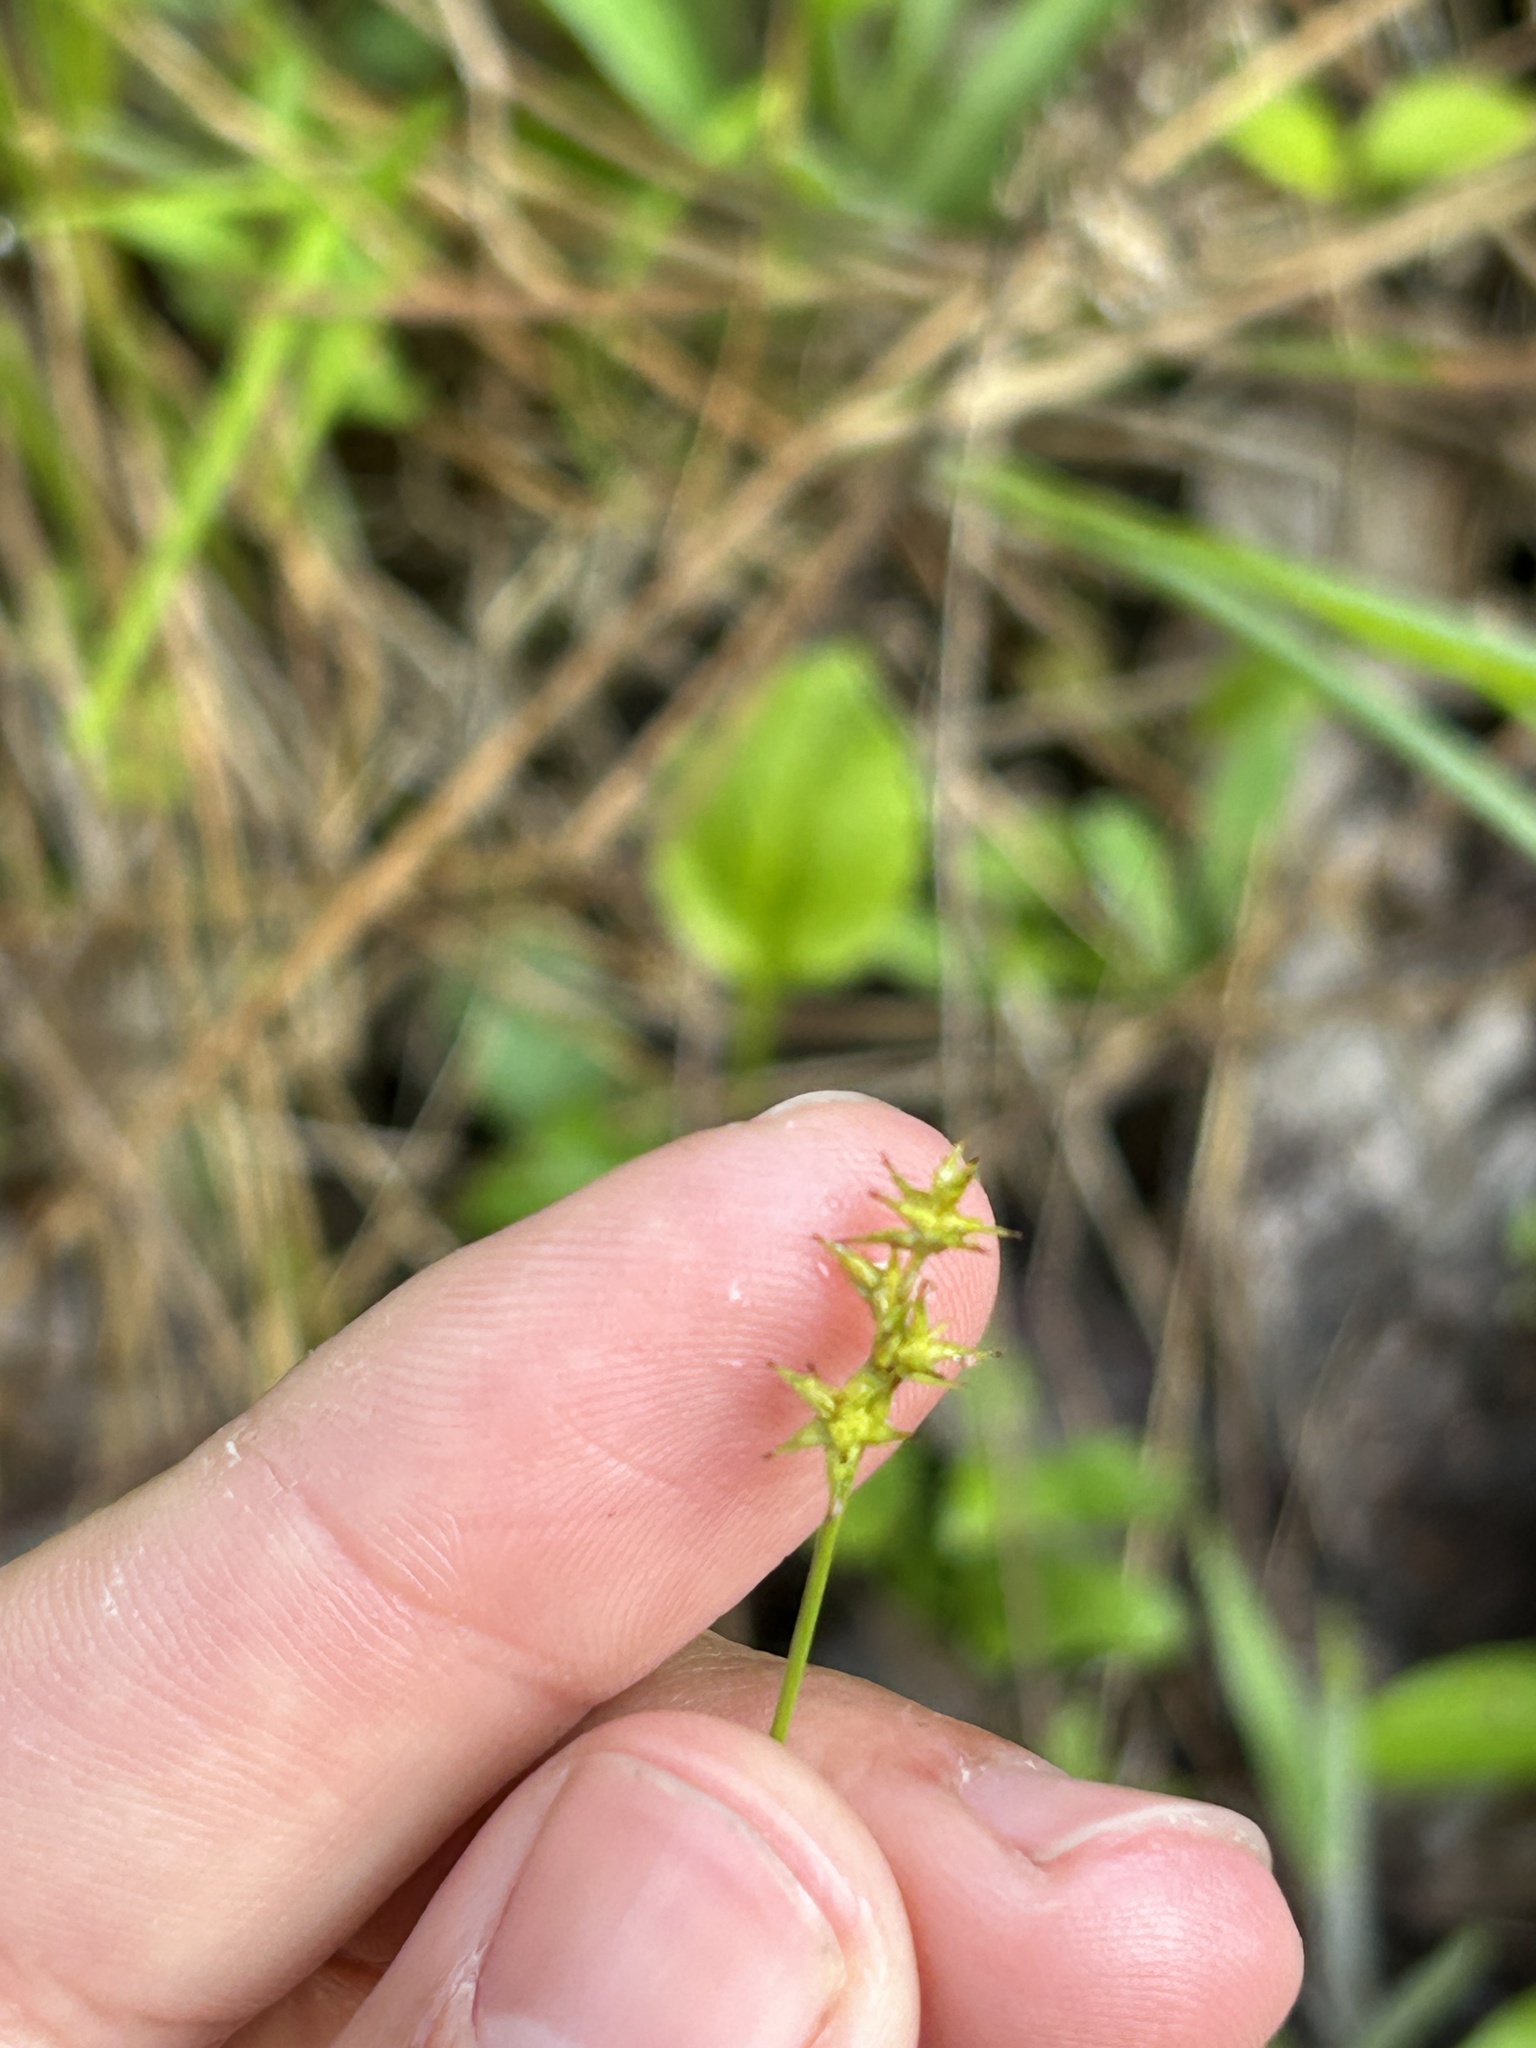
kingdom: Plantae
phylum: Tracheophyta
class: Liliopsida
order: Poales
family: Cyperaceae
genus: Carex
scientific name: Carex echinata
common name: Star sedge
